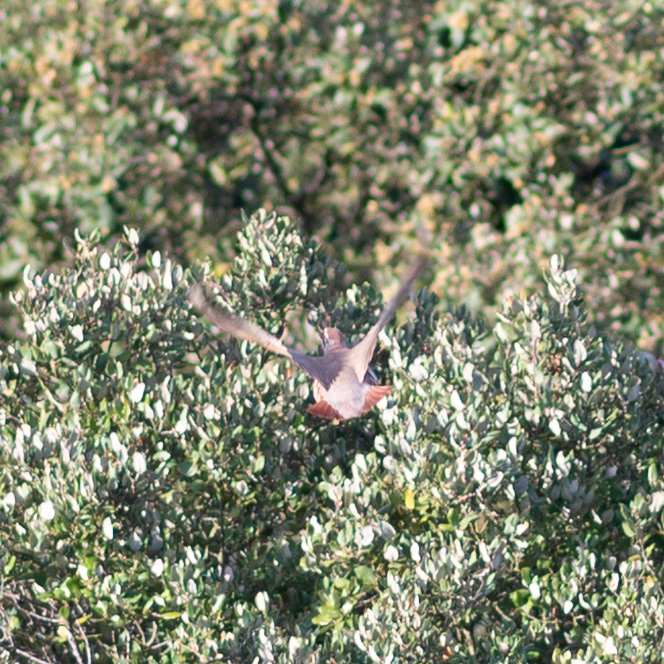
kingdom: Animalia
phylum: Chordata
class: Aves
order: Galliformes
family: Phasianidae
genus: Alectoris
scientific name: Alectoris rufa
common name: Red-legged partridge
